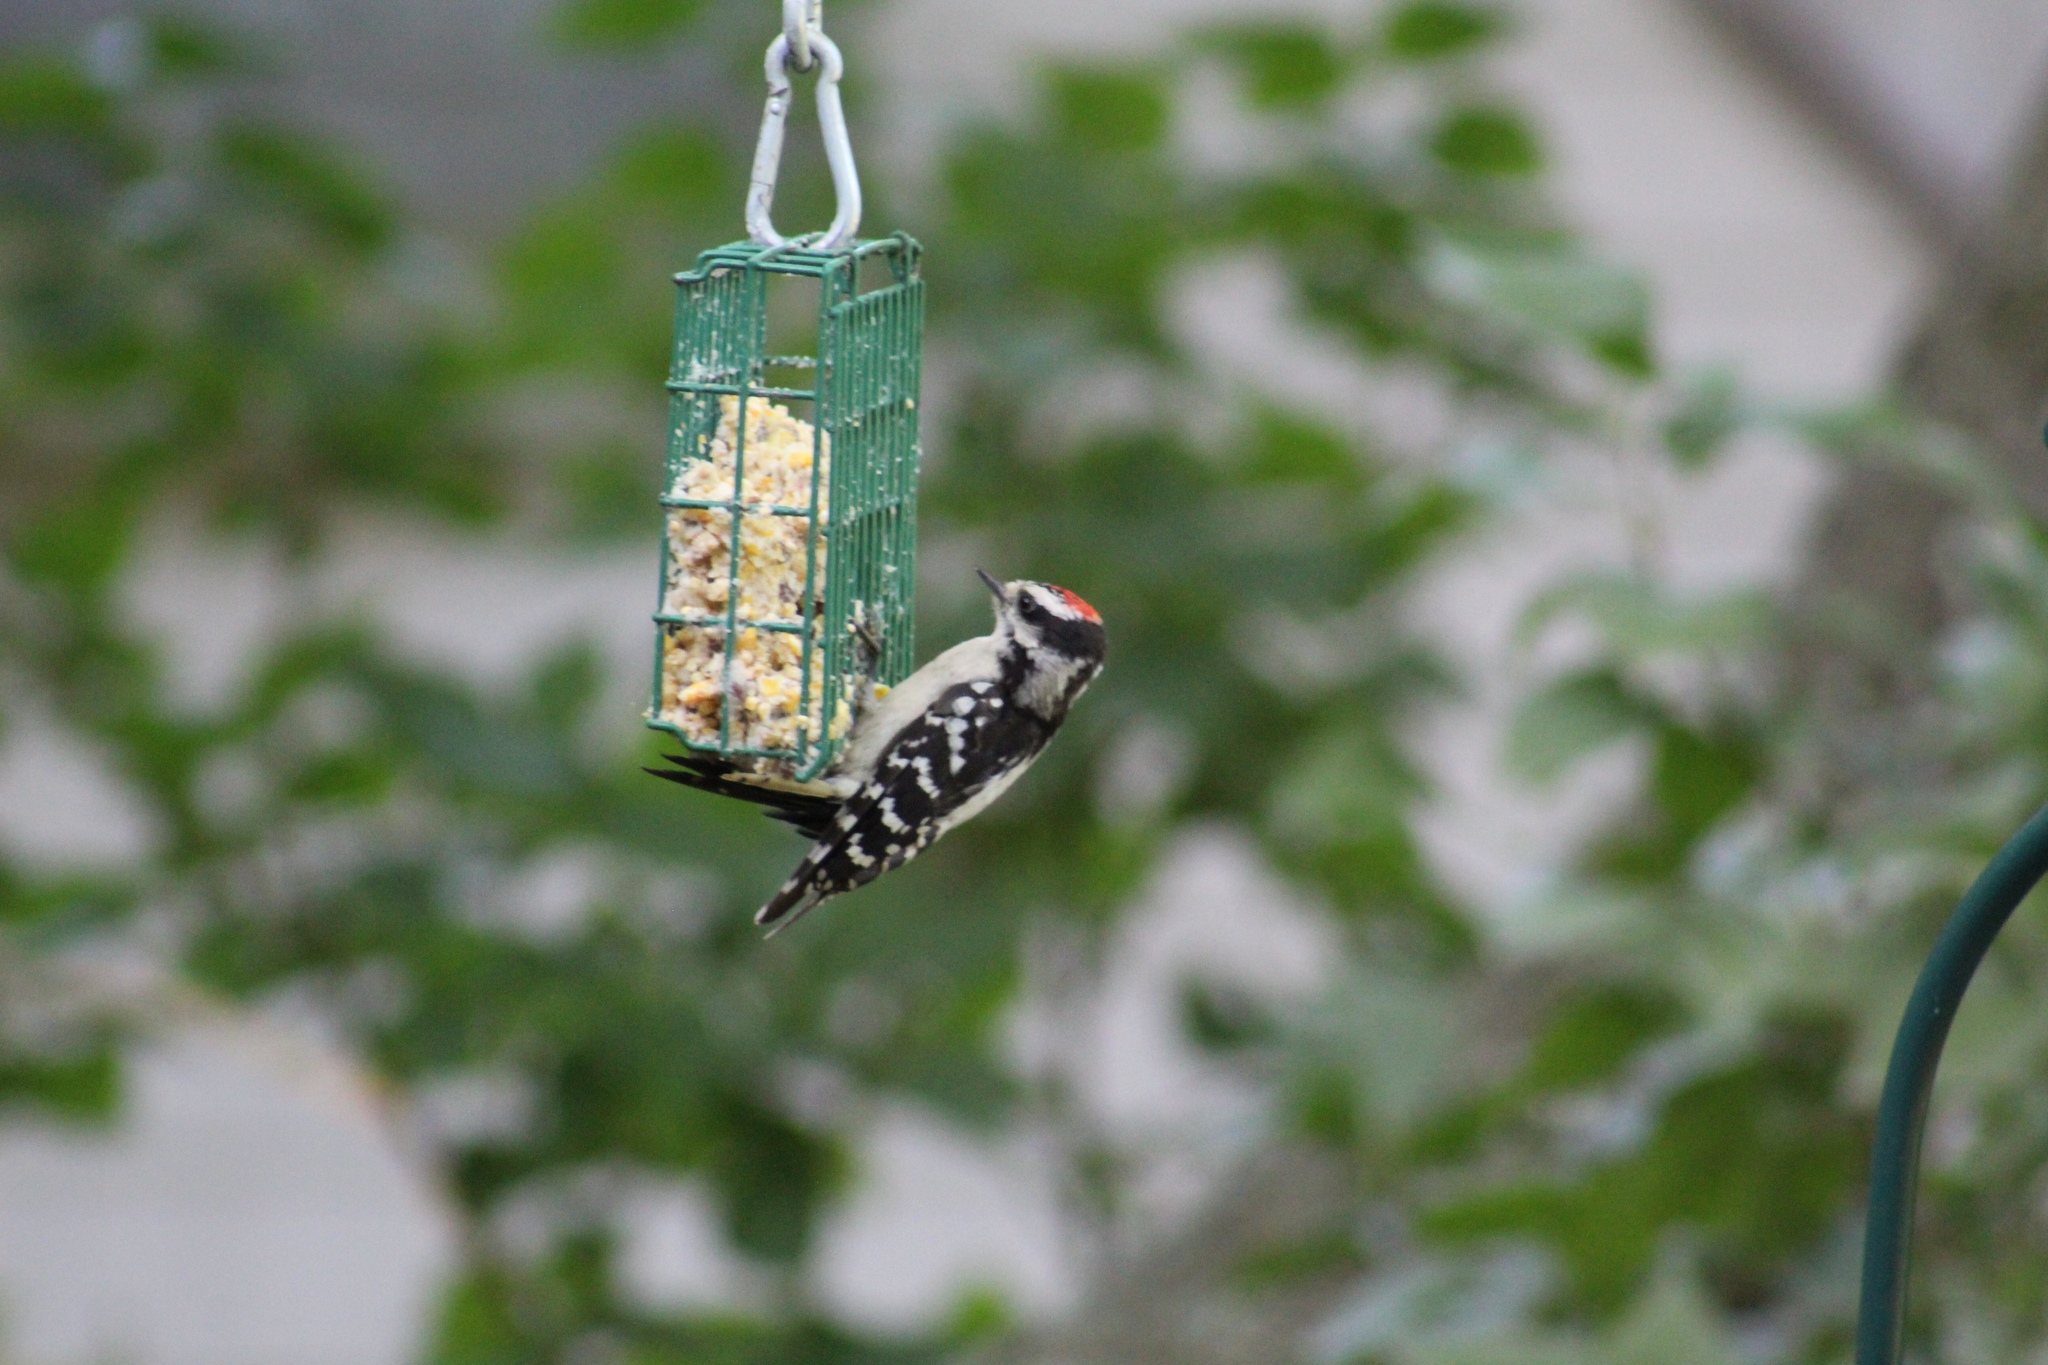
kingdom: Animalia
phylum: Chordata
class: Aves
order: Piciformes
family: Picidae
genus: Dryobates
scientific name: Dryobates pubescens
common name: Downy woodpecker
